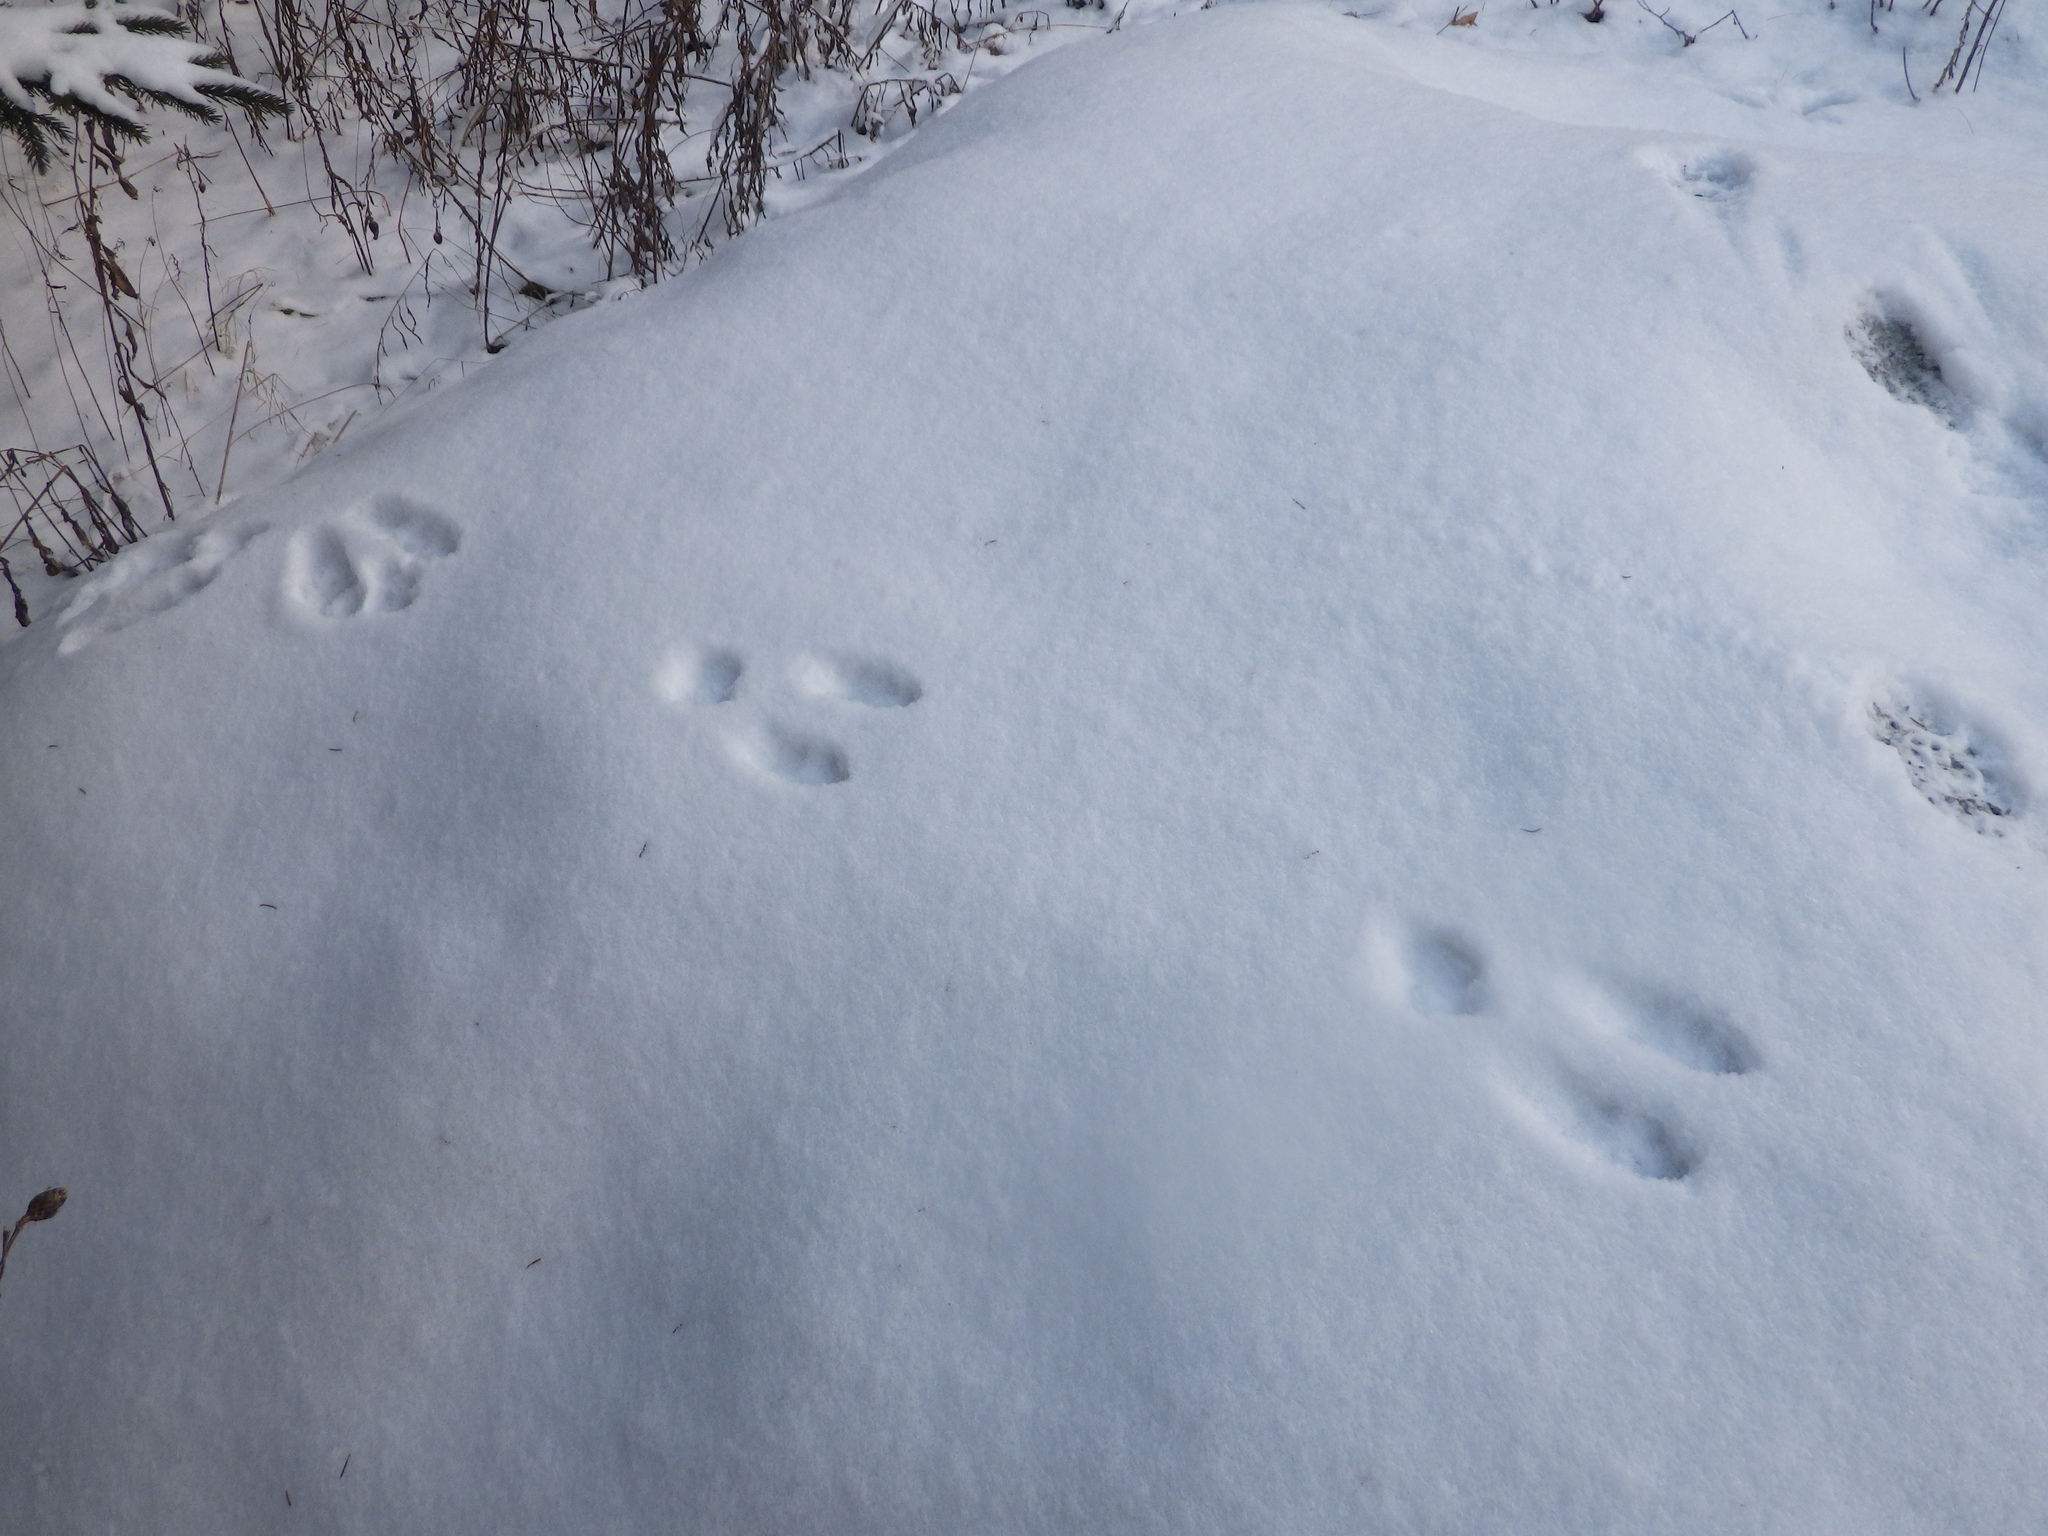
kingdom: Animalia
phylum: Chordata
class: Mammalia
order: Lagomorpha
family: Leporidae
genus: Lepus
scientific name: Lepus americanus
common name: Snowshoe hare
